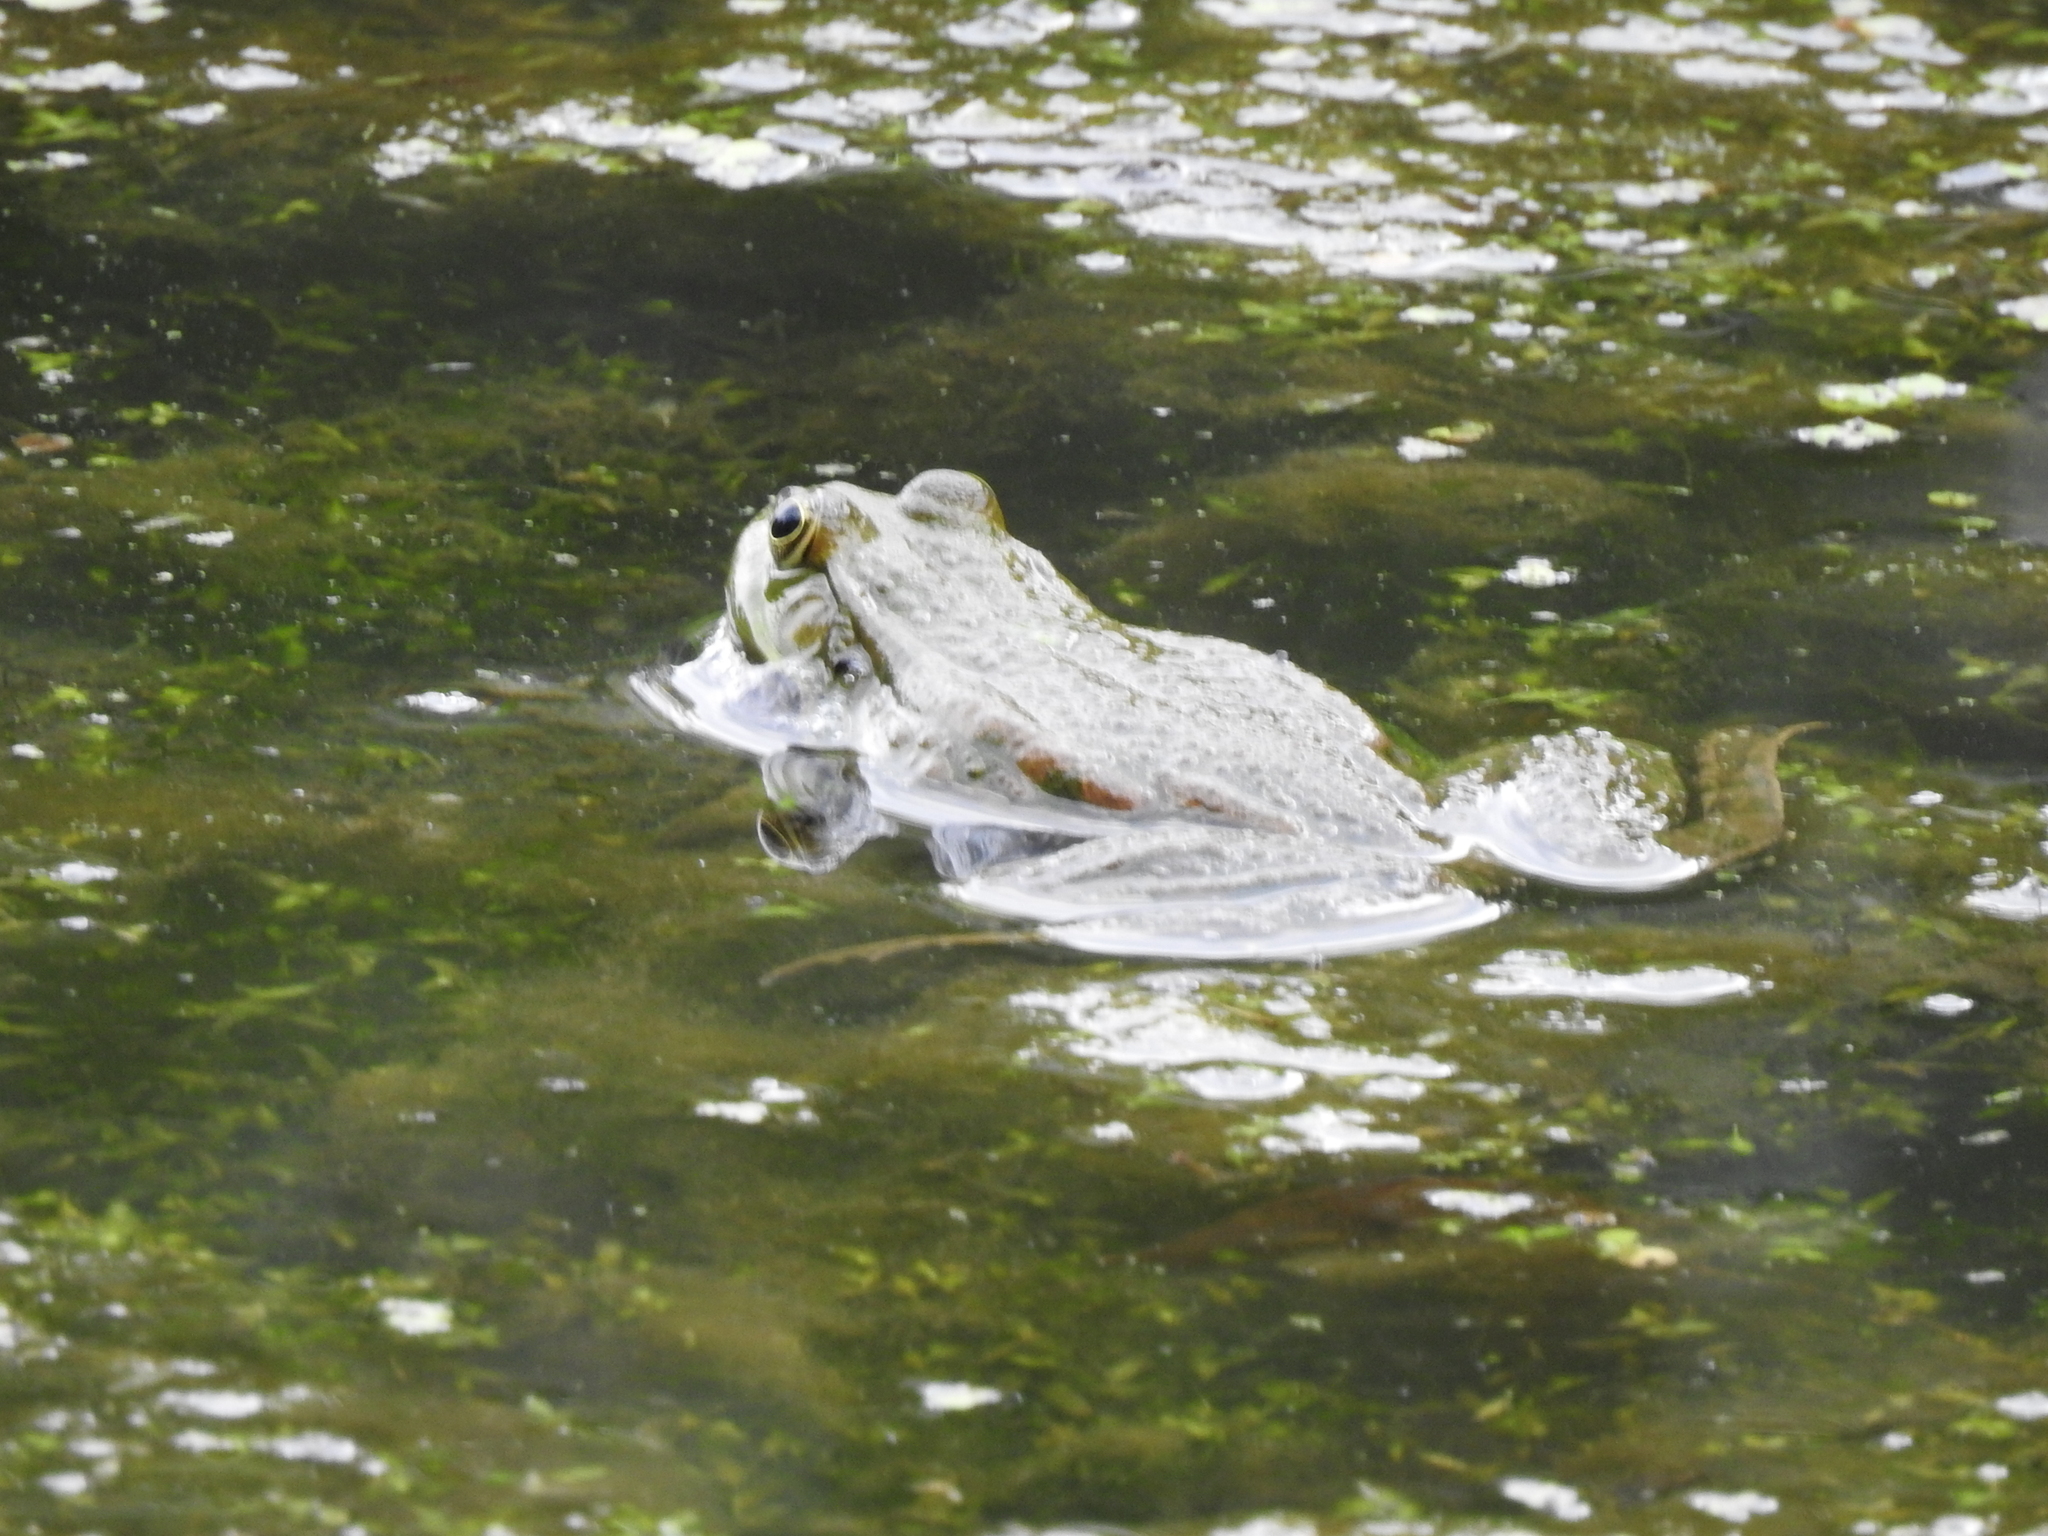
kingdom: Animalia
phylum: Chordata
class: Amphibia
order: Anura
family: Ranidae
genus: Pelophylax
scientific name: Pelophylax ridibundus
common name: Marsh frog
